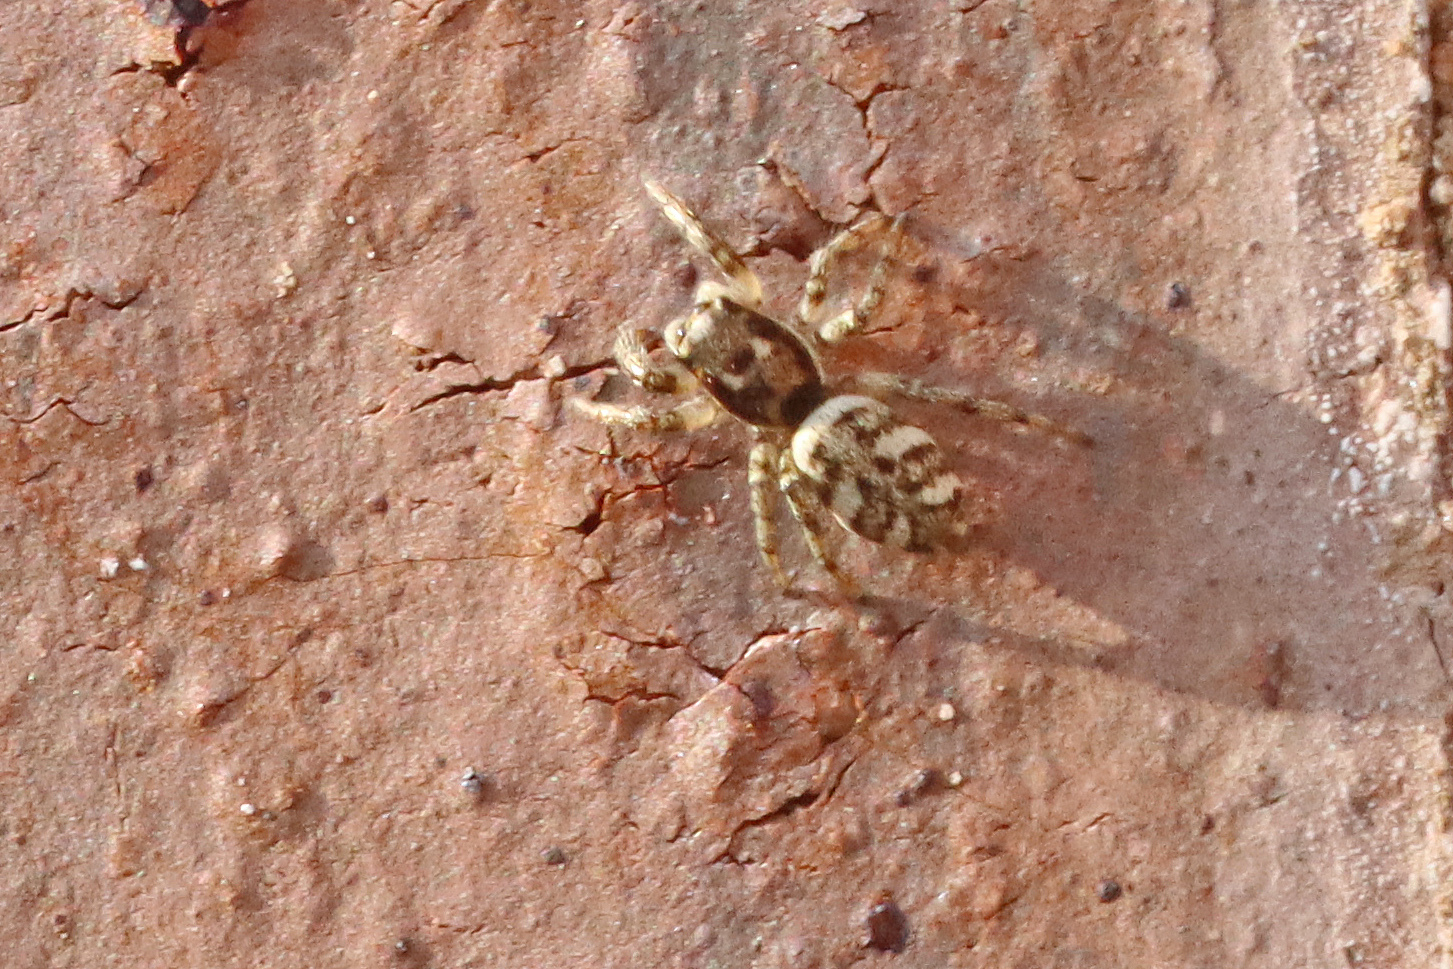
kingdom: Animalia
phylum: Arthropoda
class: Arachnida
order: Araneae
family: Salticidae
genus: Salticus
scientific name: Salticus scenicus
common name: Zebra jumper
